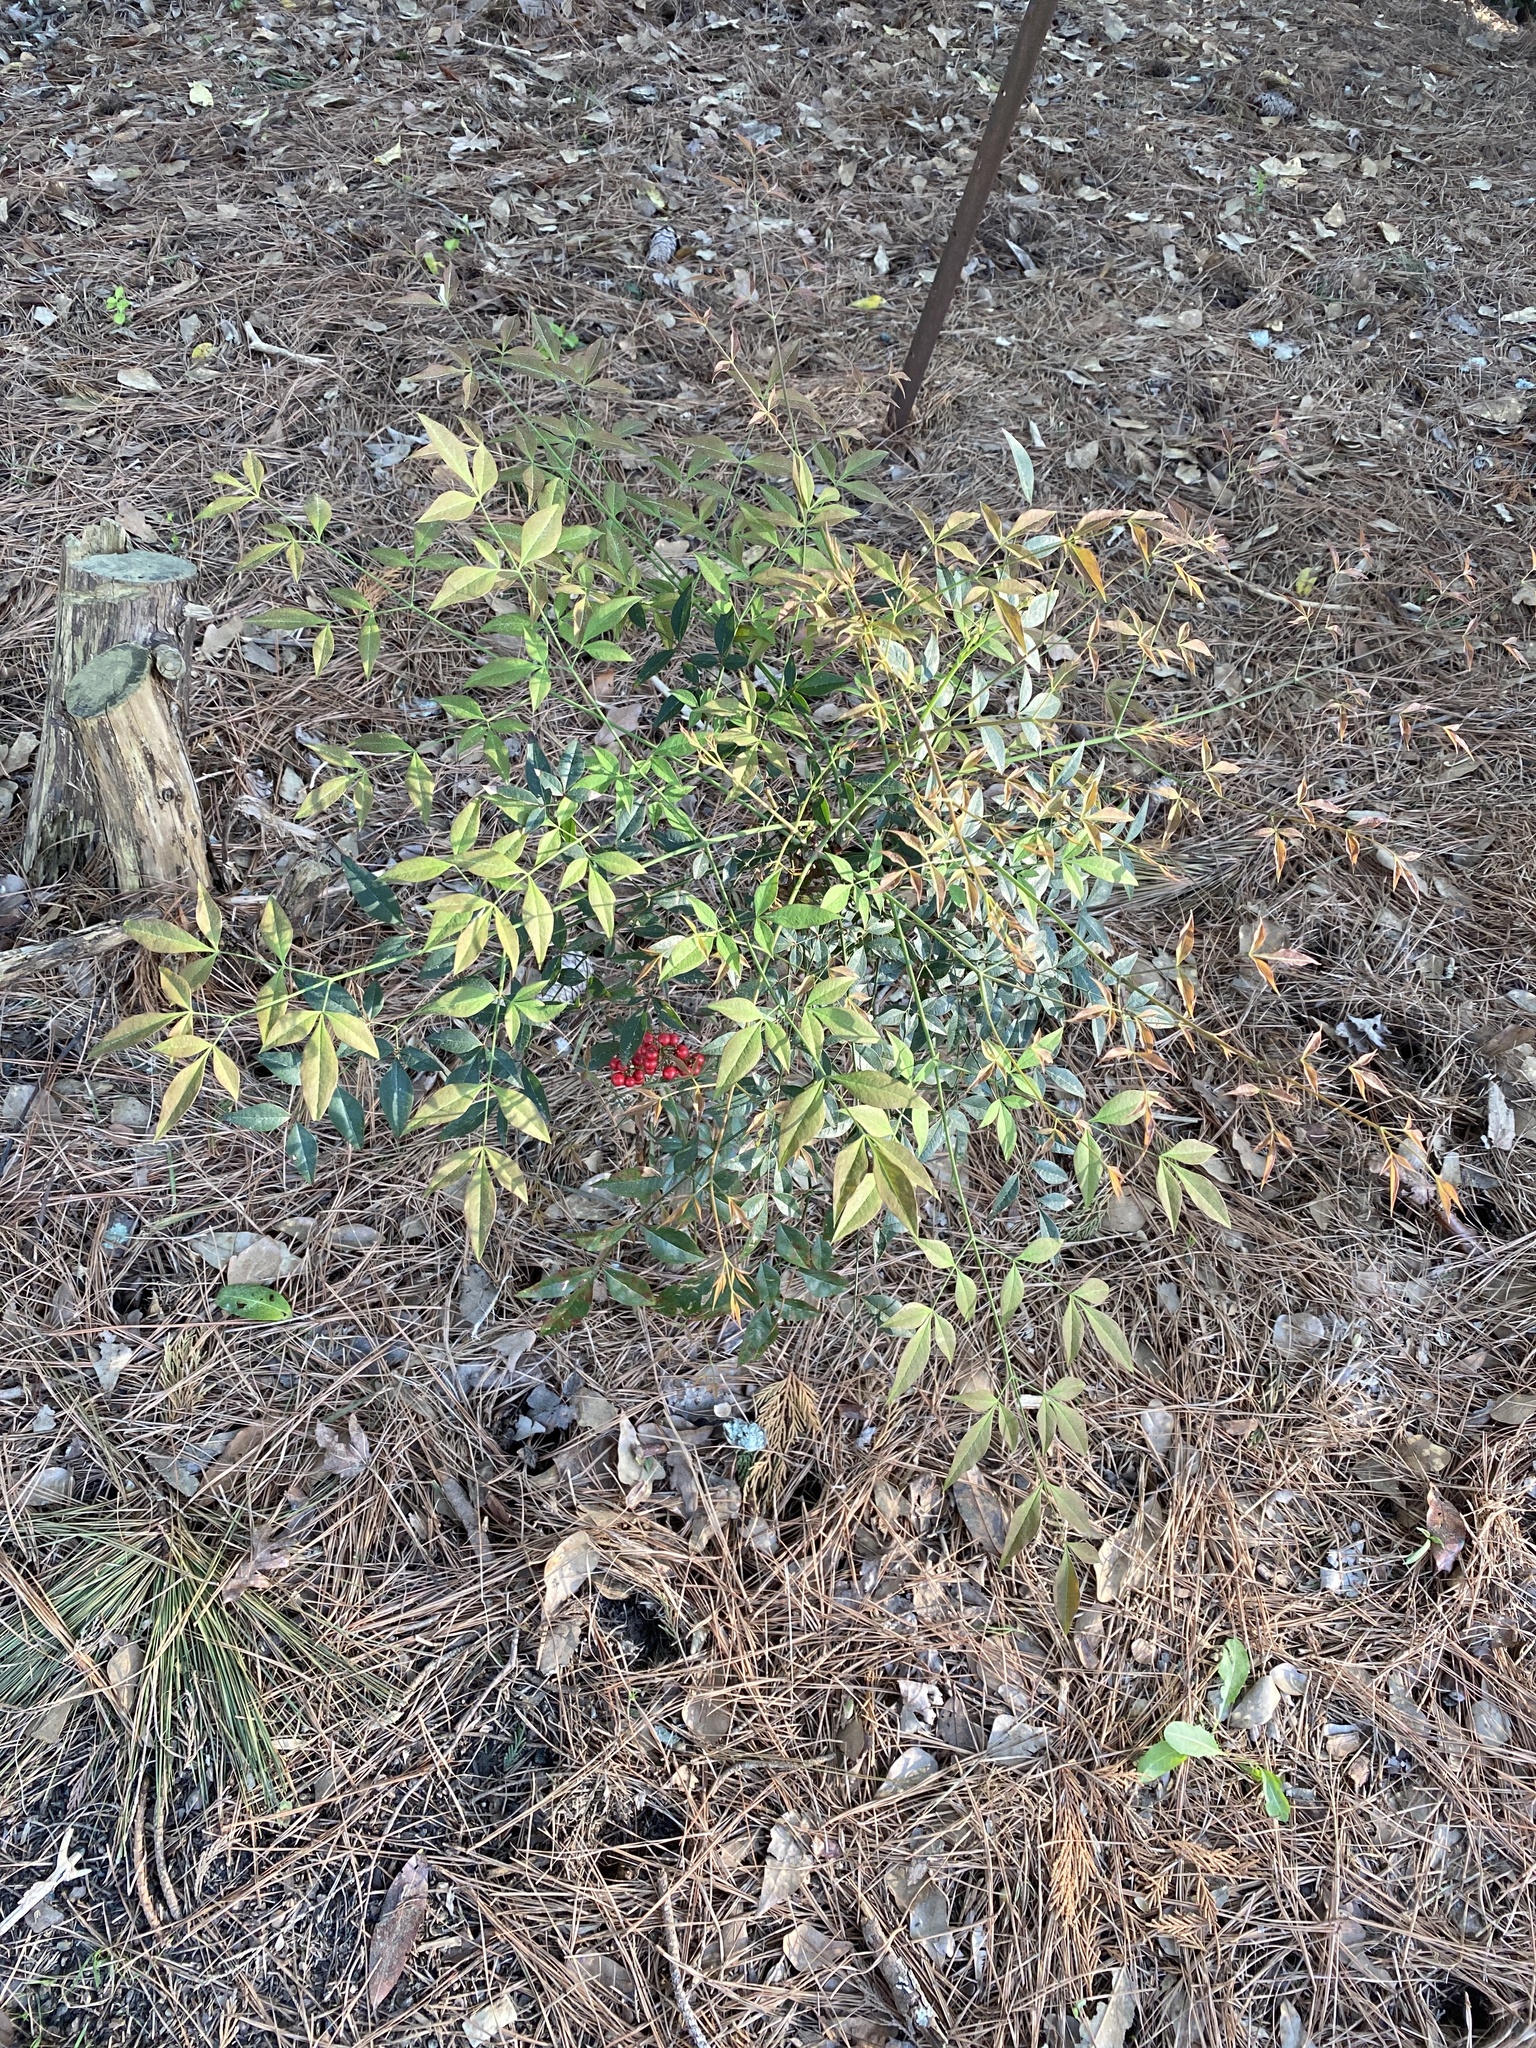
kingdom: Plantae
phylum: Tracheophyta
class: Magnoliopsida
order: Ranunculales
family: Berberidaceae
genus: Nandina
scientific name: Nandina domestica
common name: Sacred bamboo
